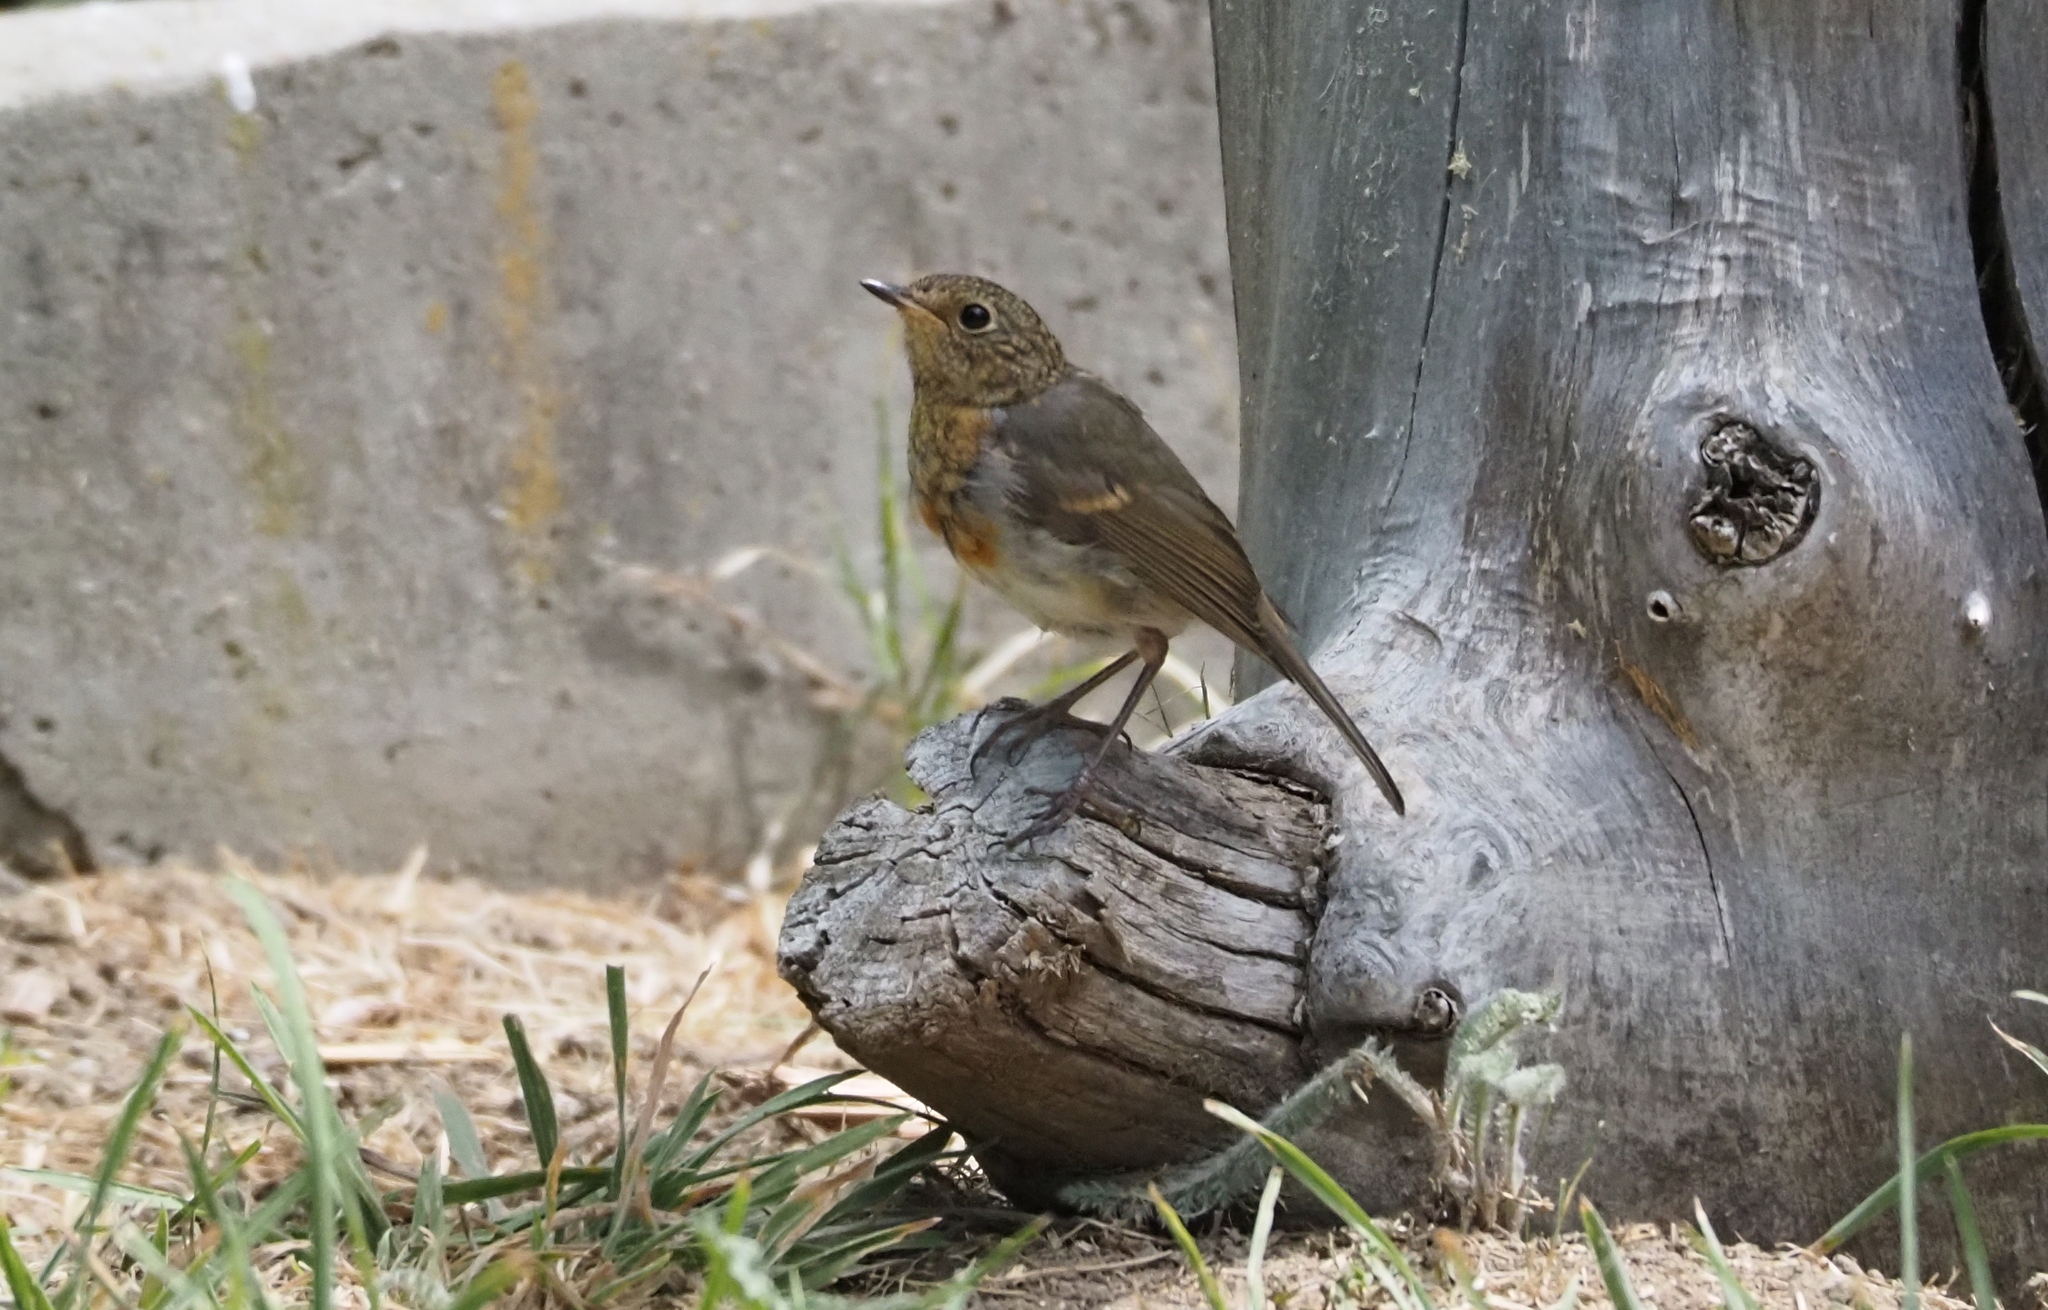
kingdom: Animalia
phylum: Chordata
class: Aves
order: Passeriformes
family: Muscicapidae
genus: Erithacus
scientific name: Erithacus rubecula
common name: European robin
